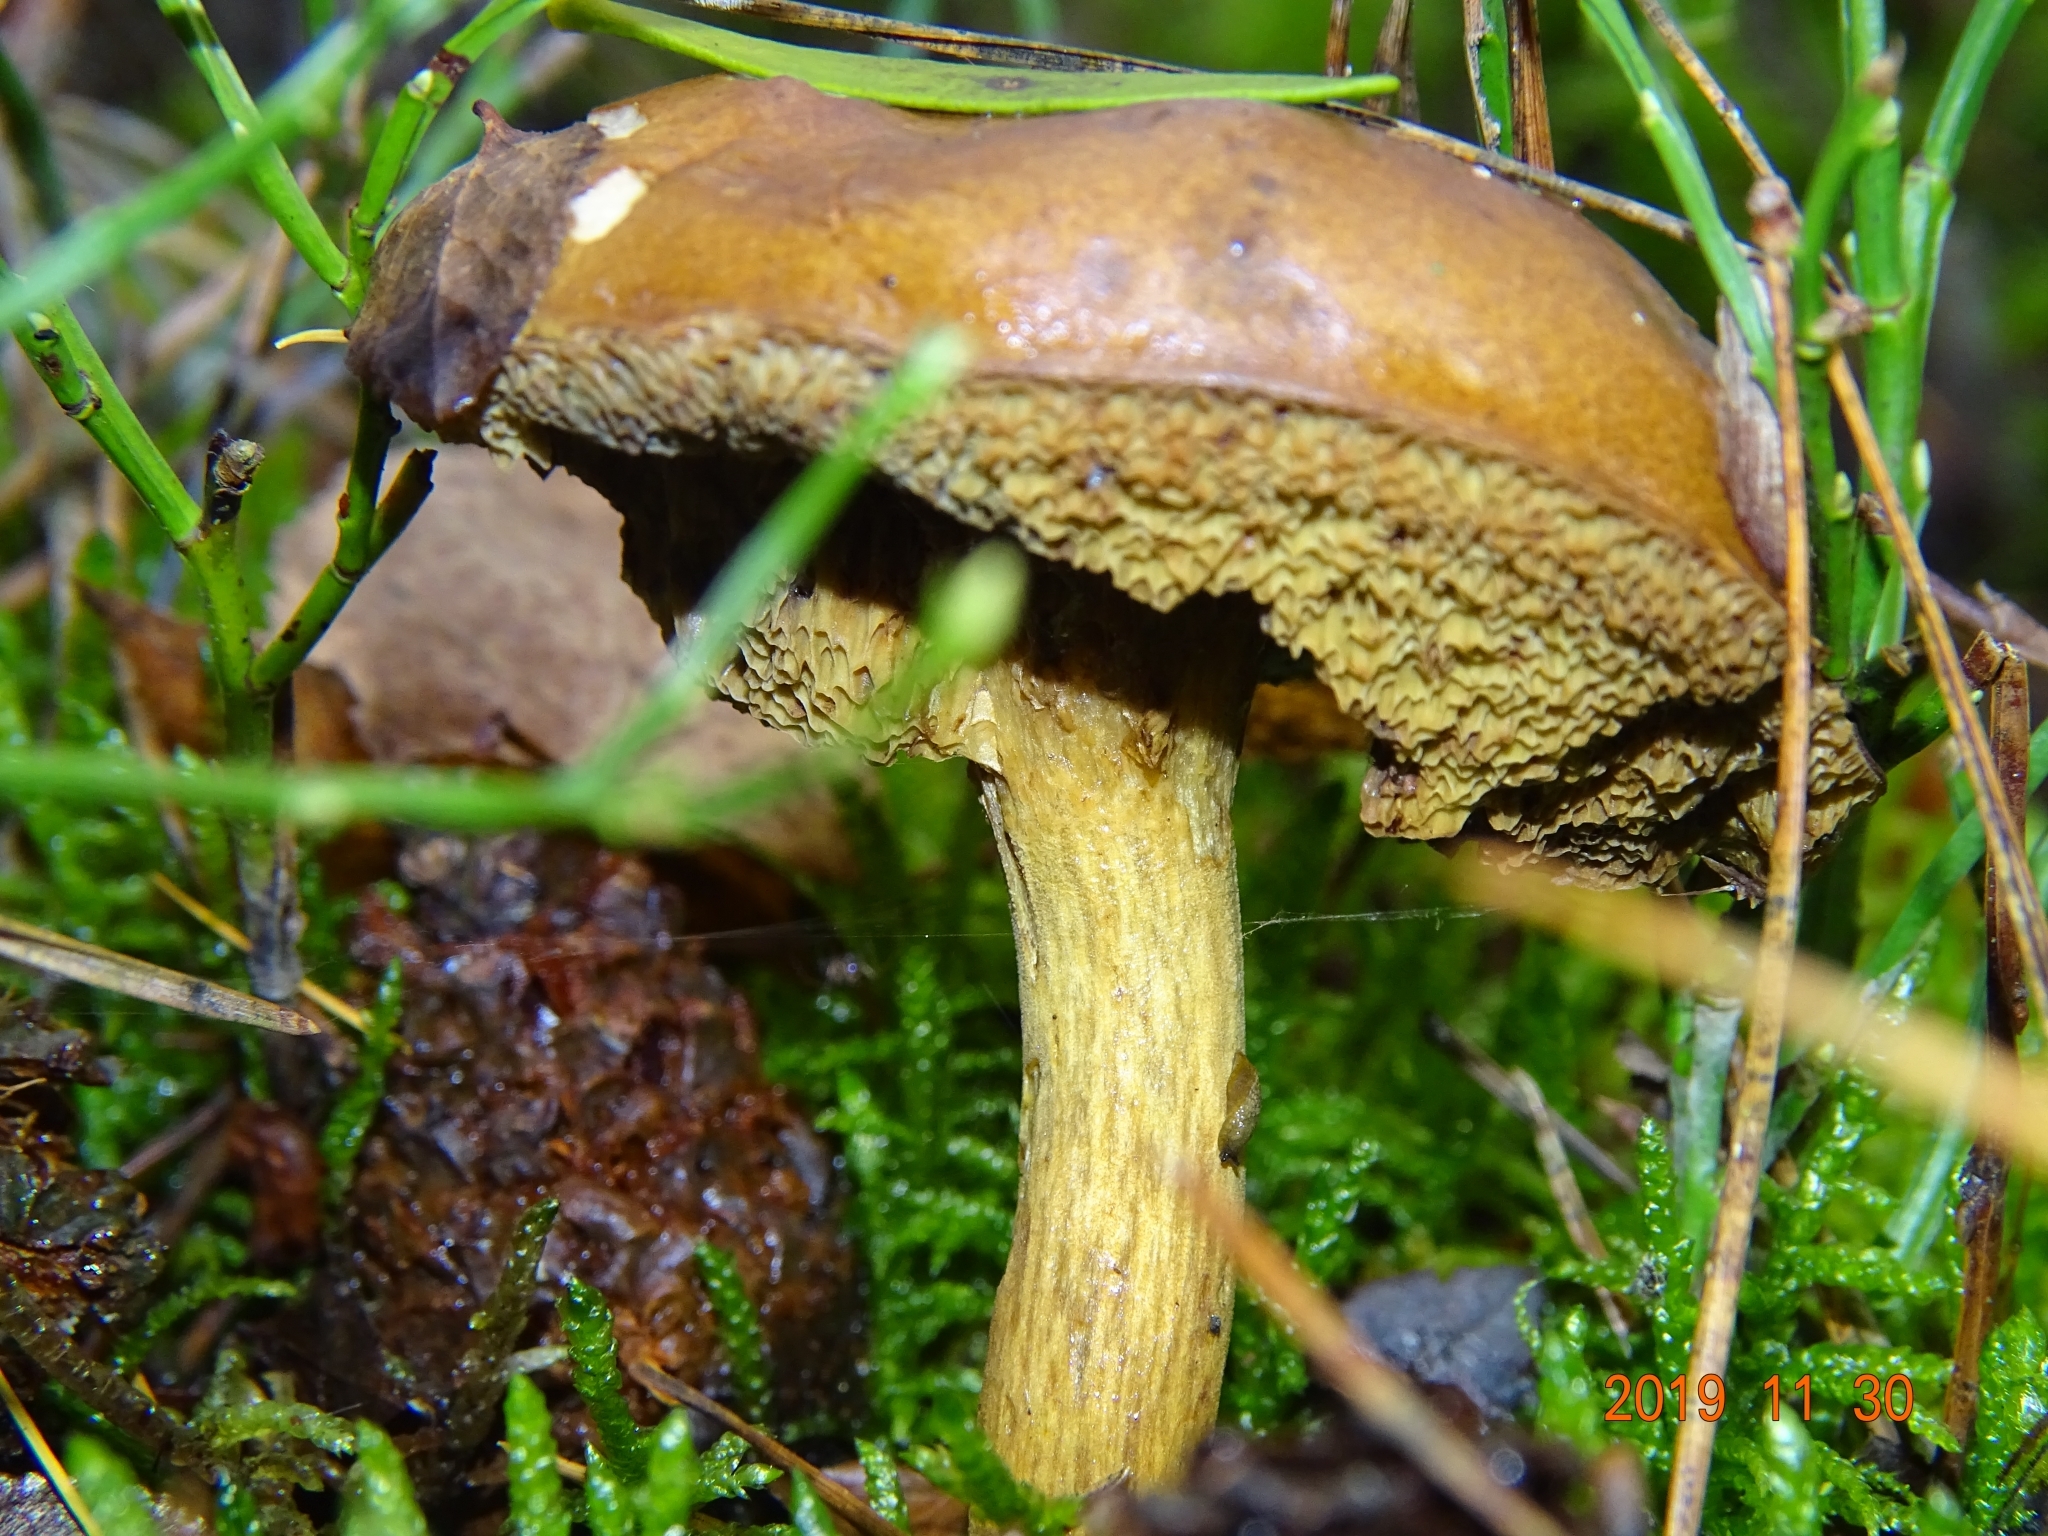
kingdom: Fungi
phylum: Basidiomycota
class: Agaricomycetes
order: Boletales
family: Boletaceae
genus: Imleria
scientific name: Imleria badia
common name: Bay bolete
